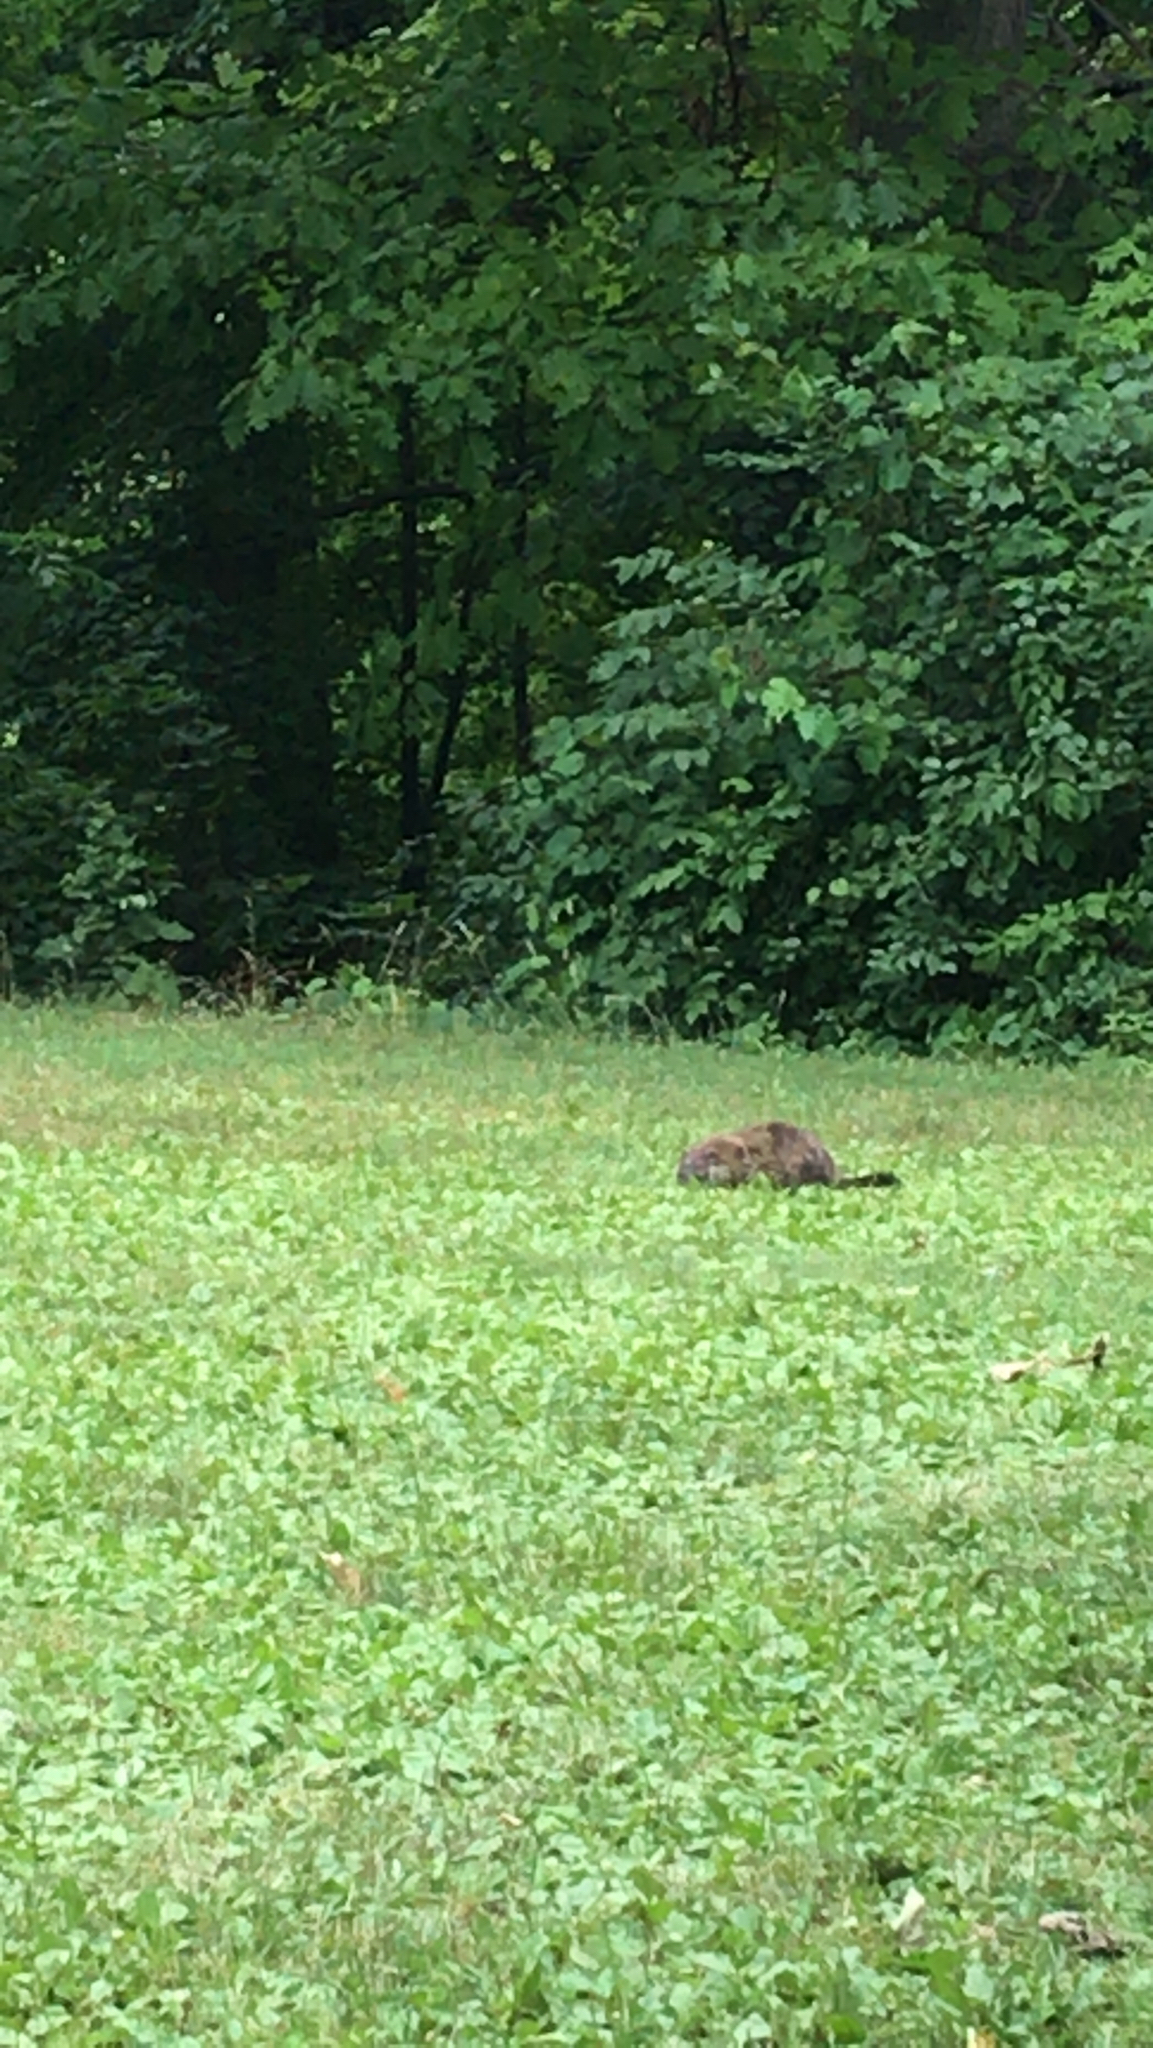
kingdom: Animalia
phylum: Chordata
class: Mammalia
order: Rodentia
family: Sciuridae
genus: Marmota
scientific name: Marmota monax
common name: Groundhog
